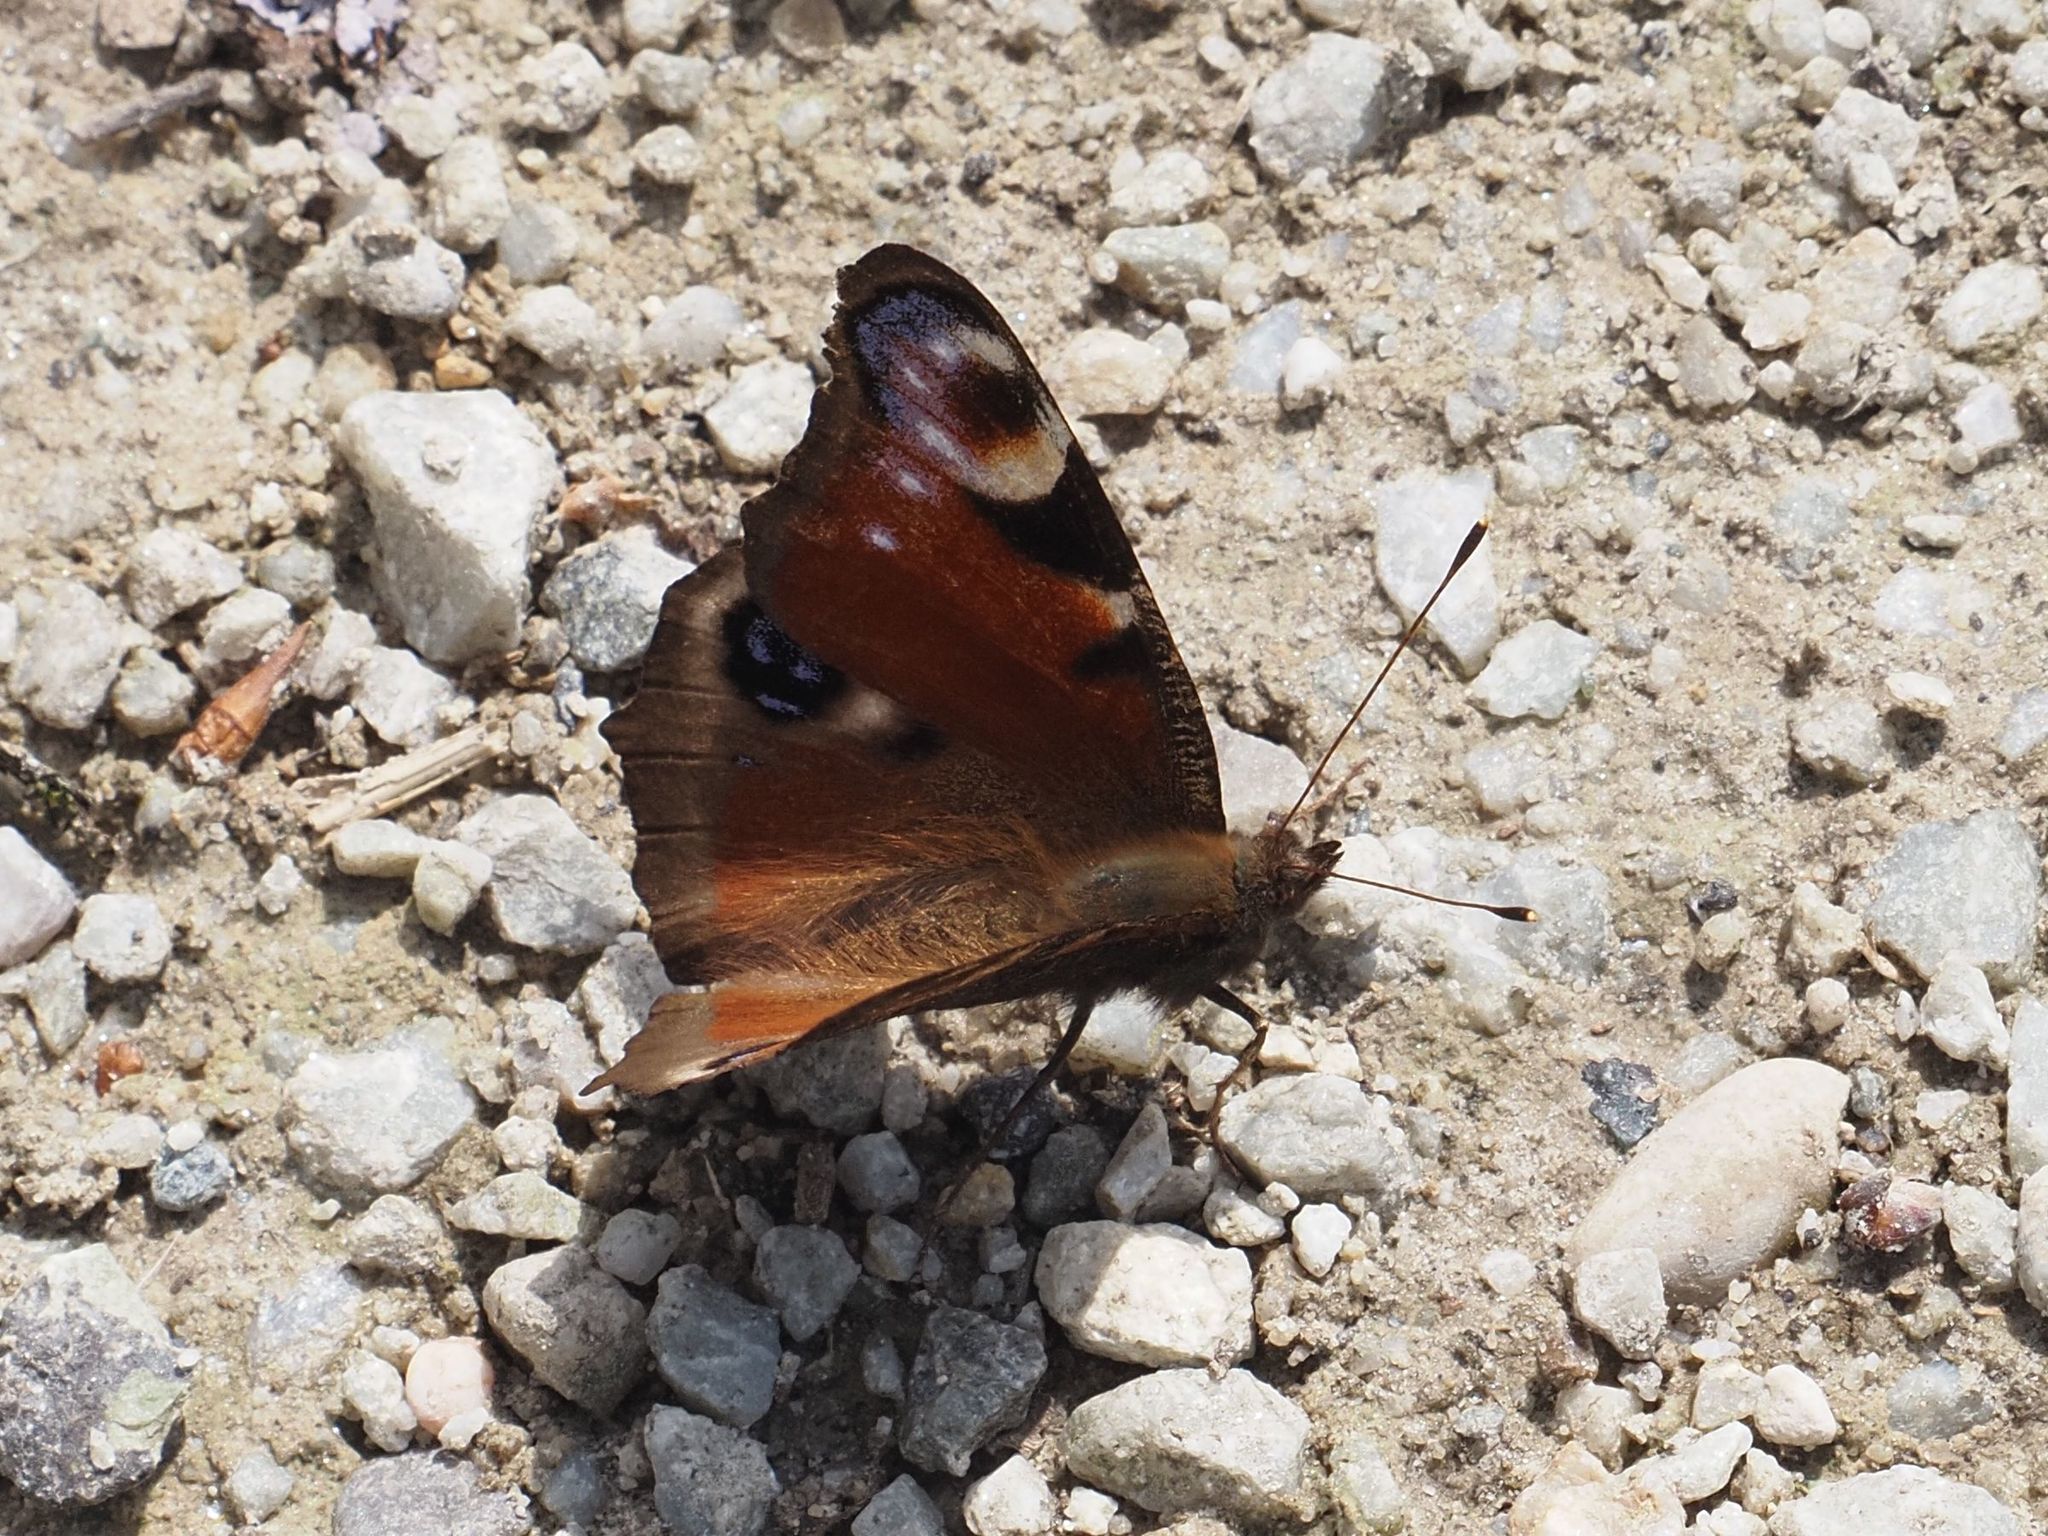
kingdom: Animalia
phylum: Arthropoda
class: Insecta
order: Lepidoptera
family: Nymphalidae
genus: Aglais
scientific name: Aglais io
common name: Peacock
